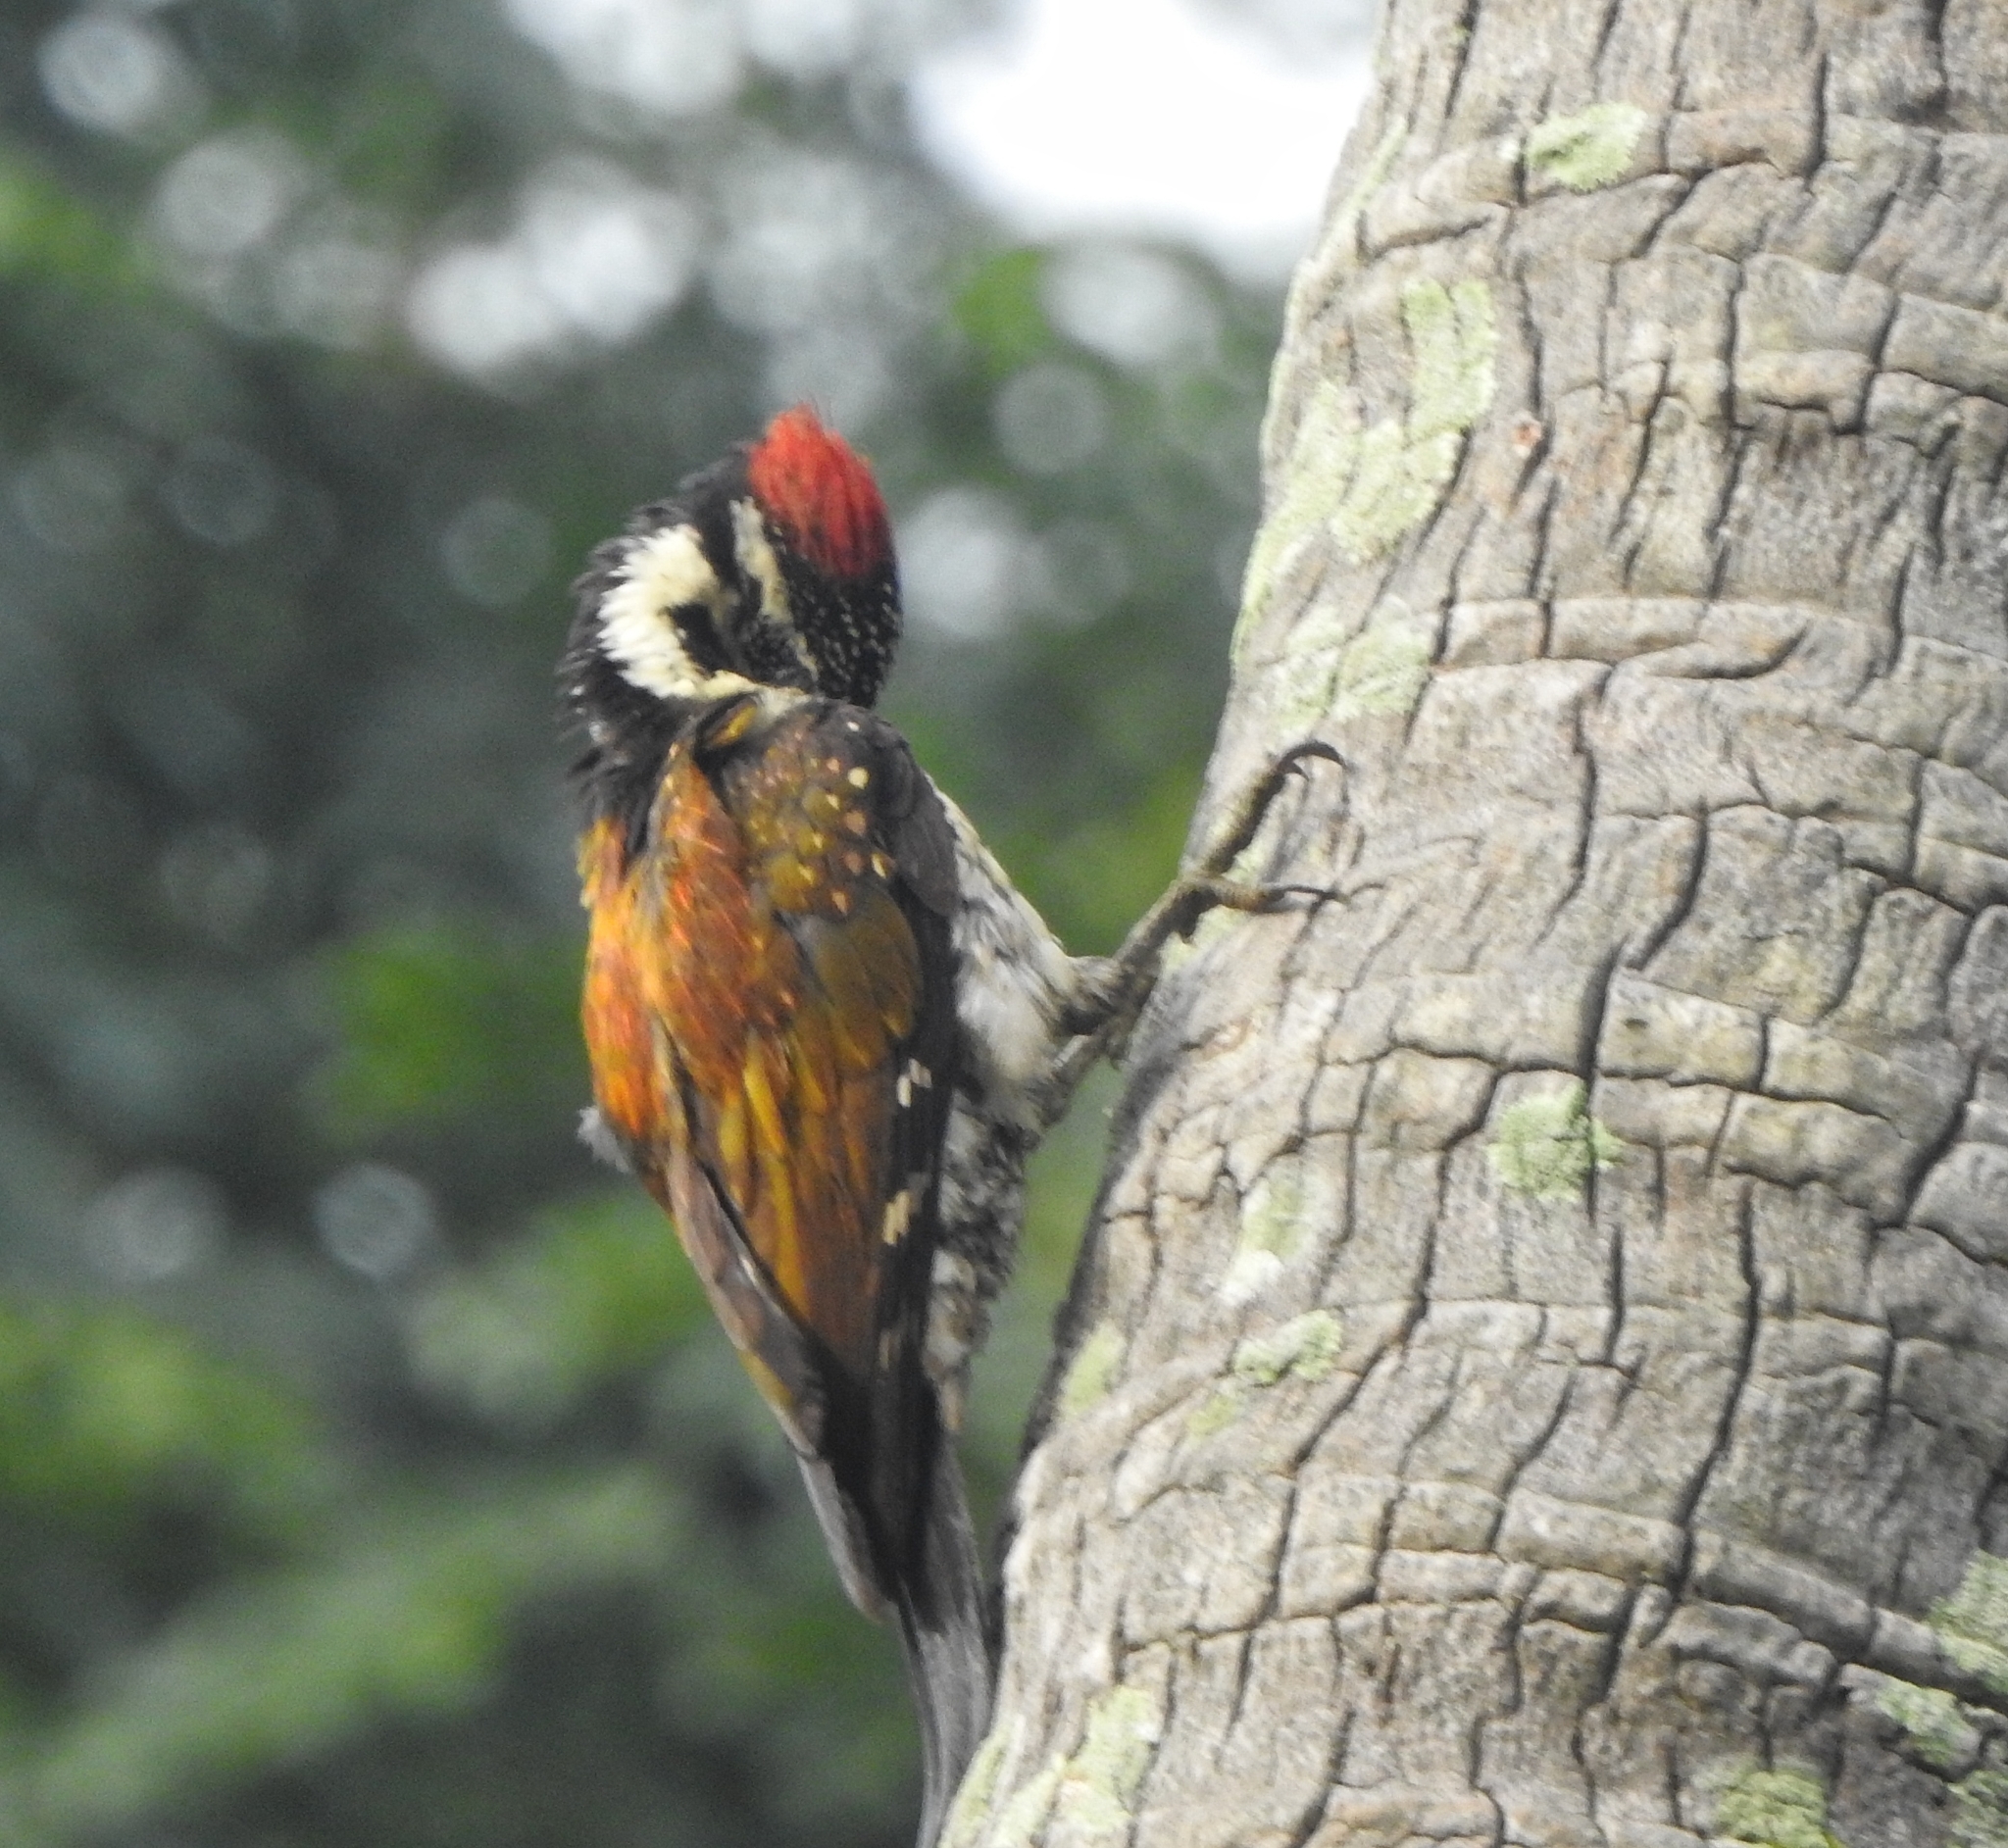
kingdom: Animalia
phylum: Chordata
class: Aves
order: Piciformes
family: Picidae
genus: Dinopium
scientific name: Dinopium benghalense
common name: Black-rumped flameback
